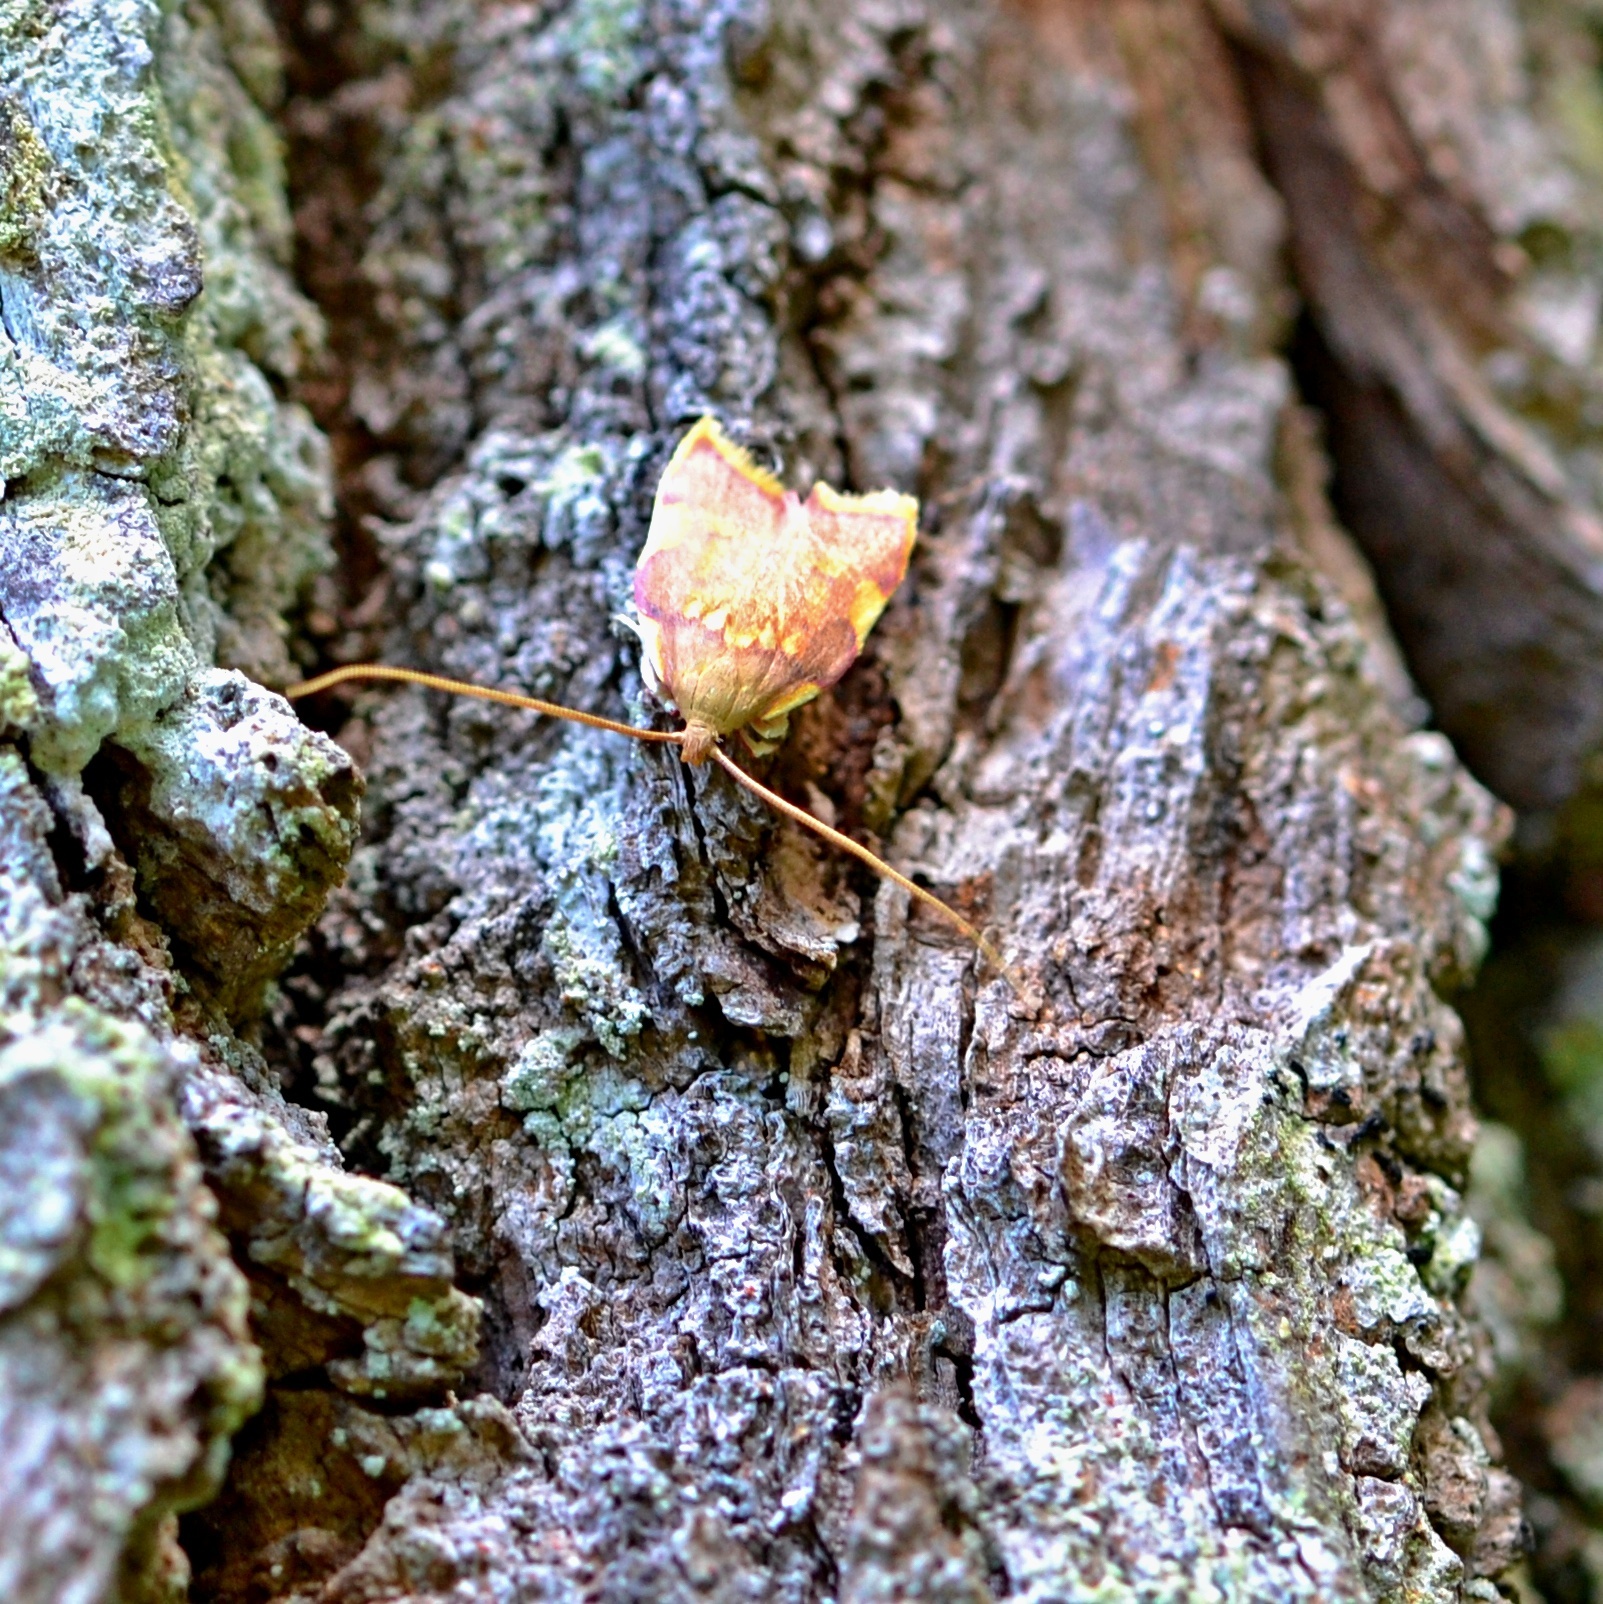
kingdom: Animalia
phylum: Arthropoda
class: Insecta
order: Lepidoptera
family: Peleopodidae
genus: Carcina
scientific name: Carcina quercana
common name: Moth
